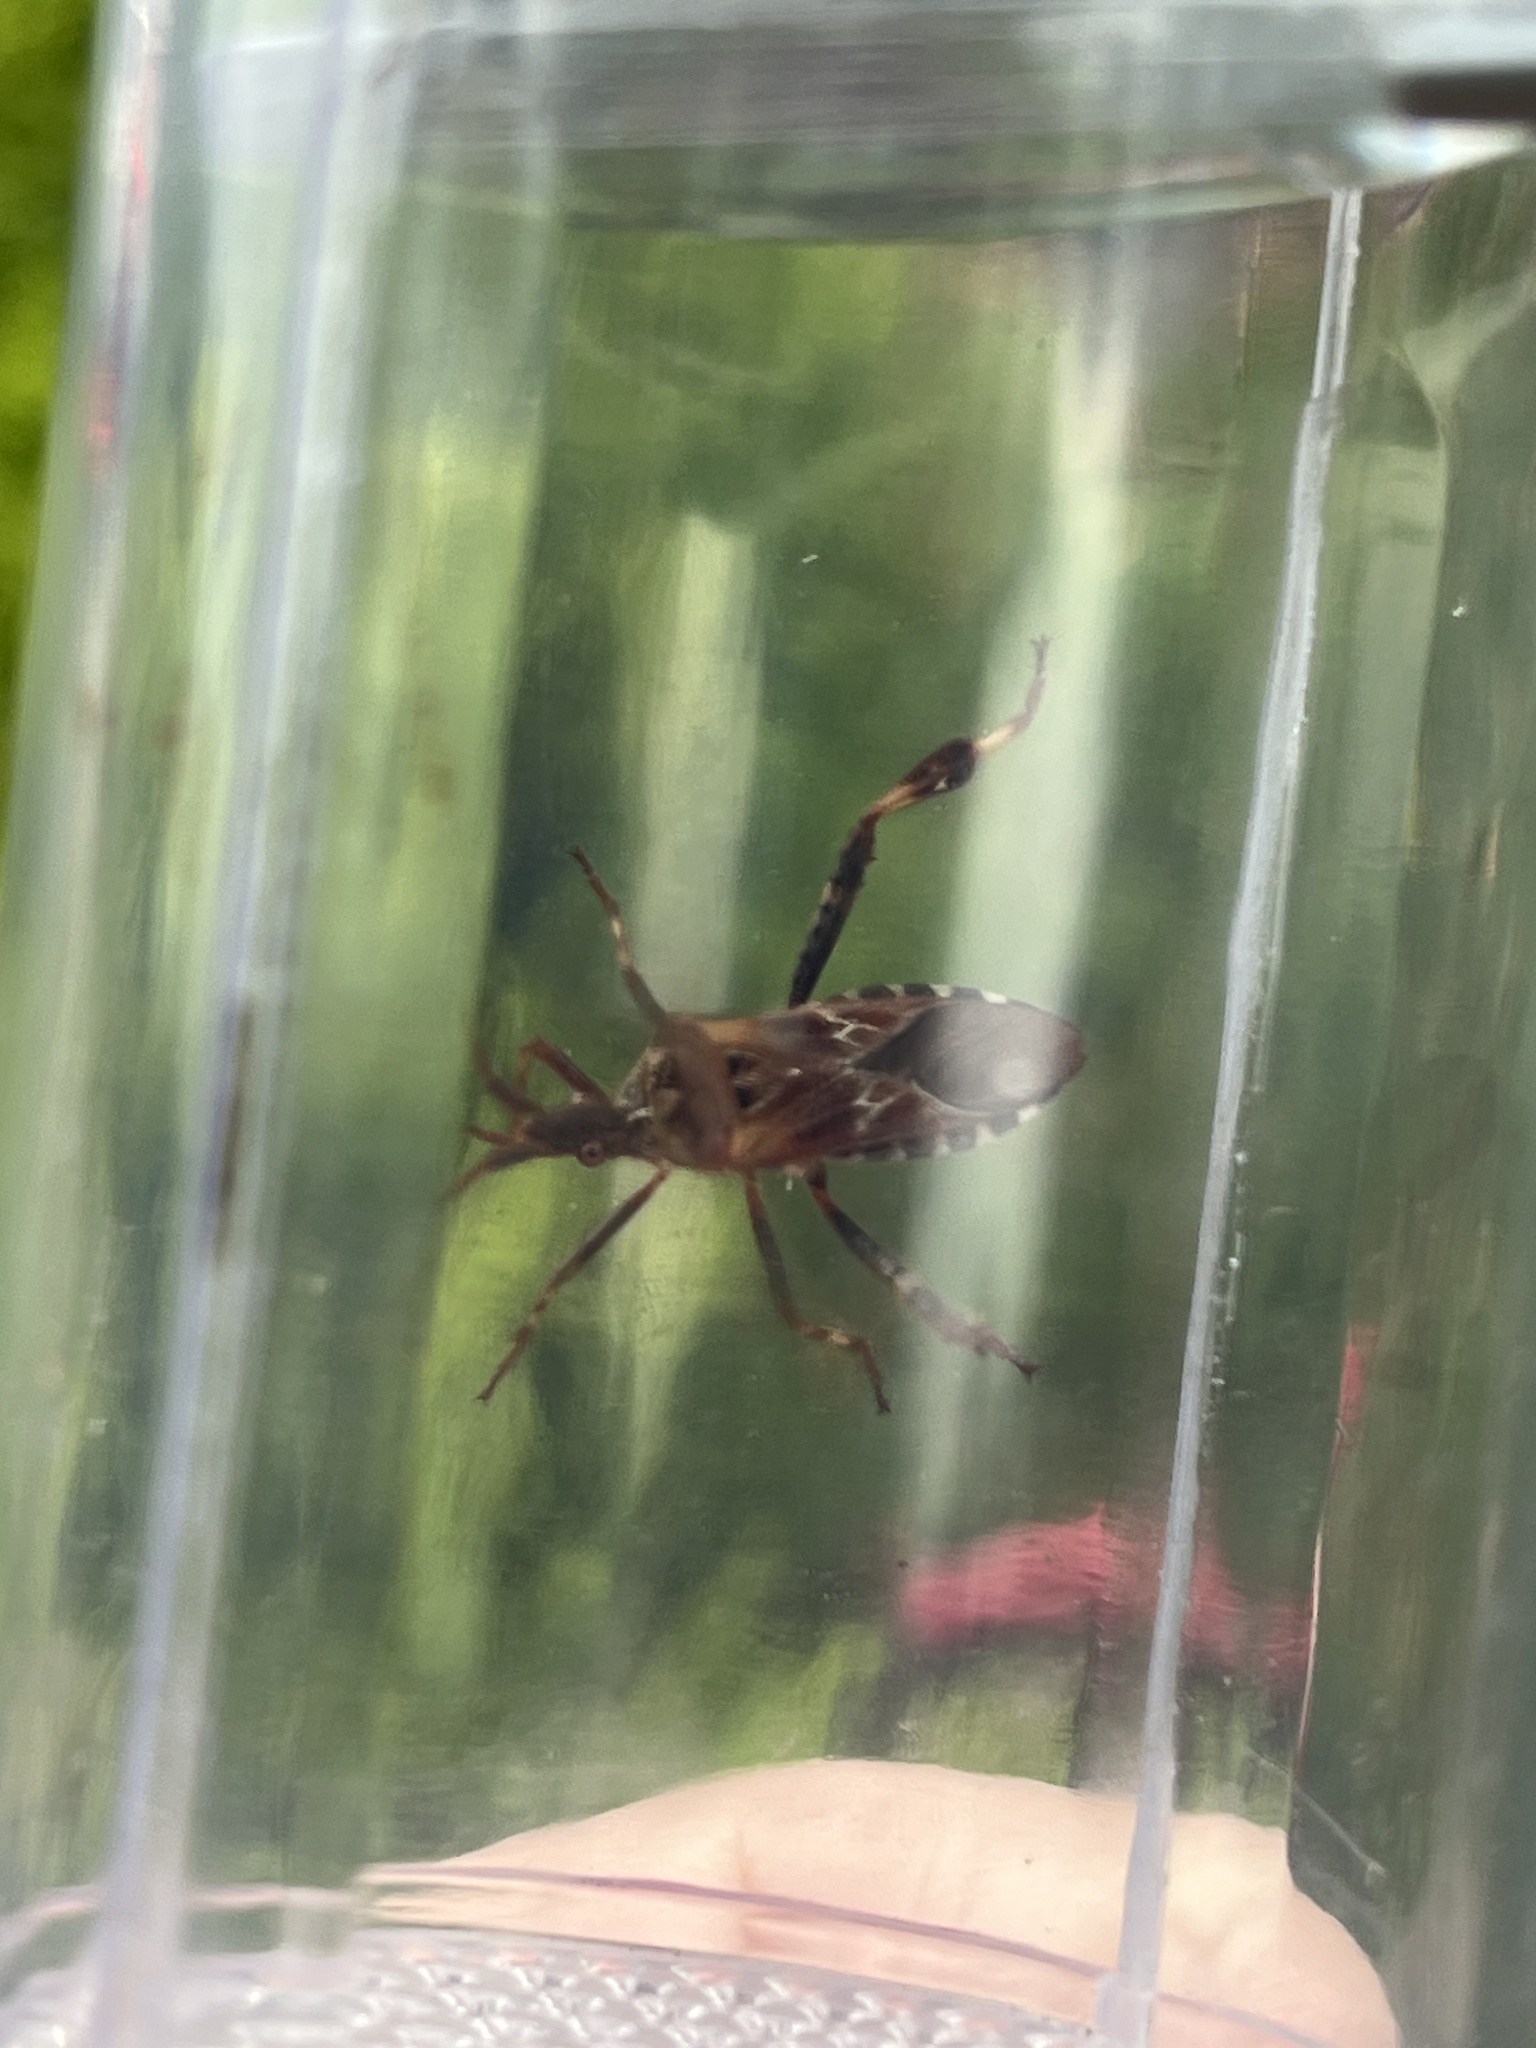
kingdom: Animalia
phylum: Arthropoda
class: Insecta
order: Hemiptera
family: Coreidae
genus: Leptoglossus
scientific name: Leptoglossus occidentalis
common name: Western conifer-seed bug
